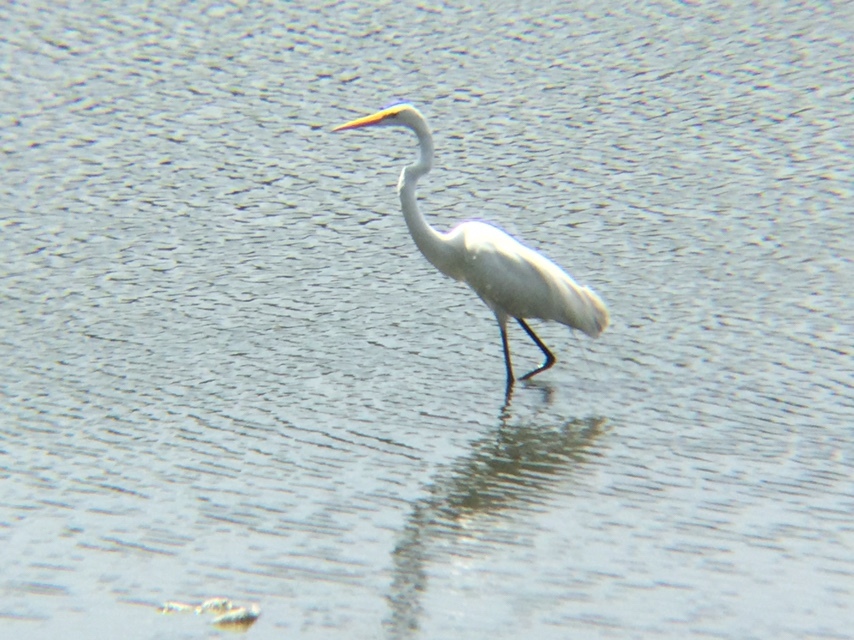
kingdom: Animalia
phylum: Chordata
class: Aves
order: Pelecaniformes
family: Ardeidae
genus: Ardea
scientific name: Ardea alba
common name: Great egret
